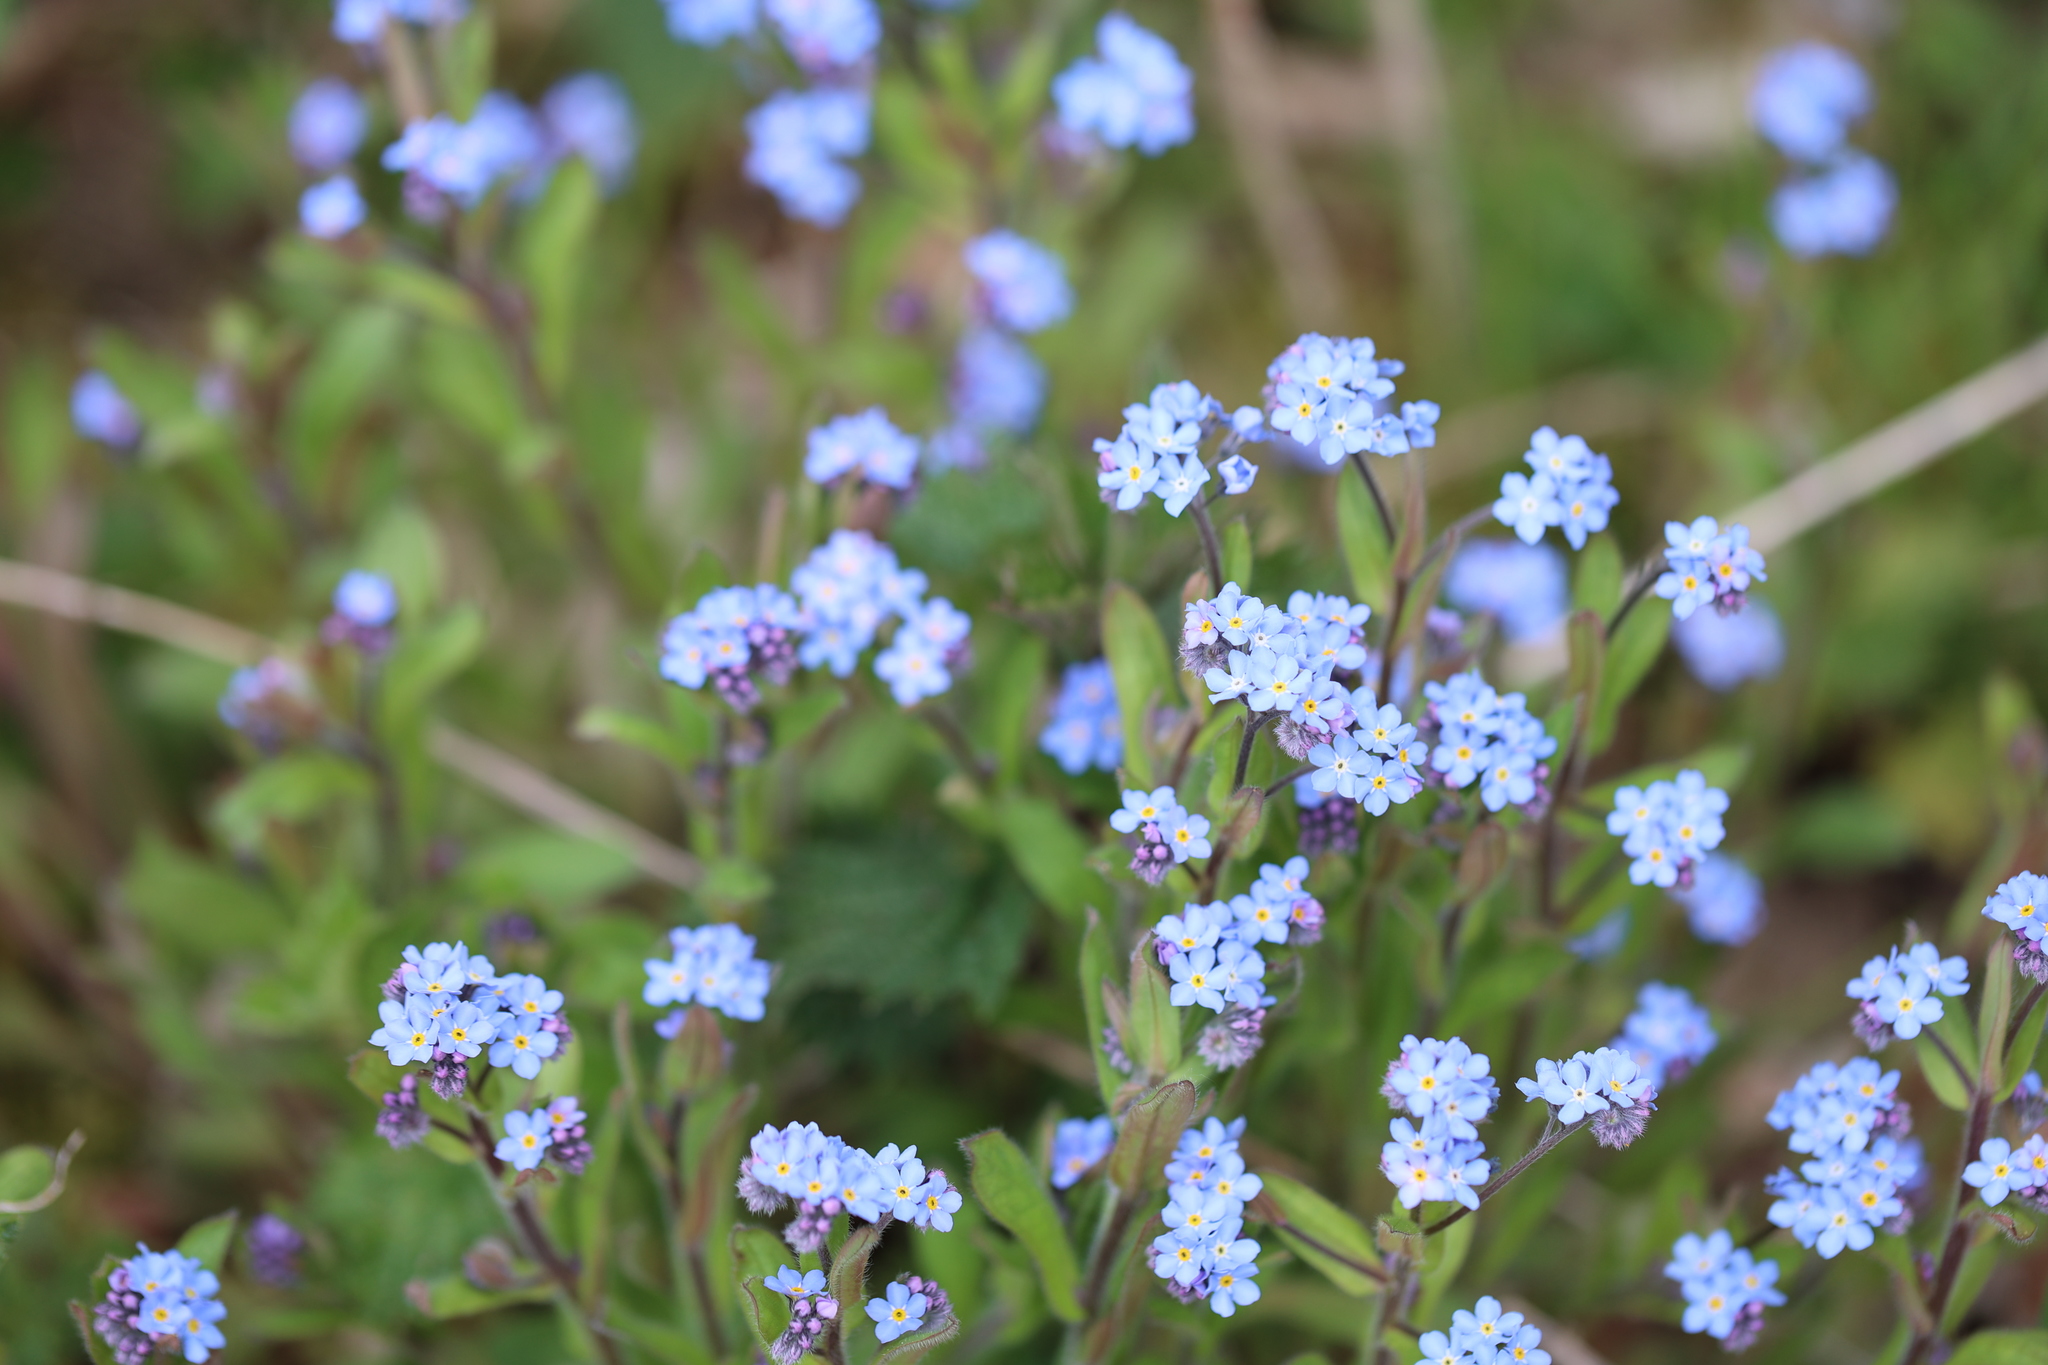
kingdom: Plantae
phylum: Tracheophyta
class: Magnoliopsida
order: Boraginales
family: Boraginaceae
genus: Myosotis
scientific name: Myosotis arvensis
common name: Field forget-me-not
